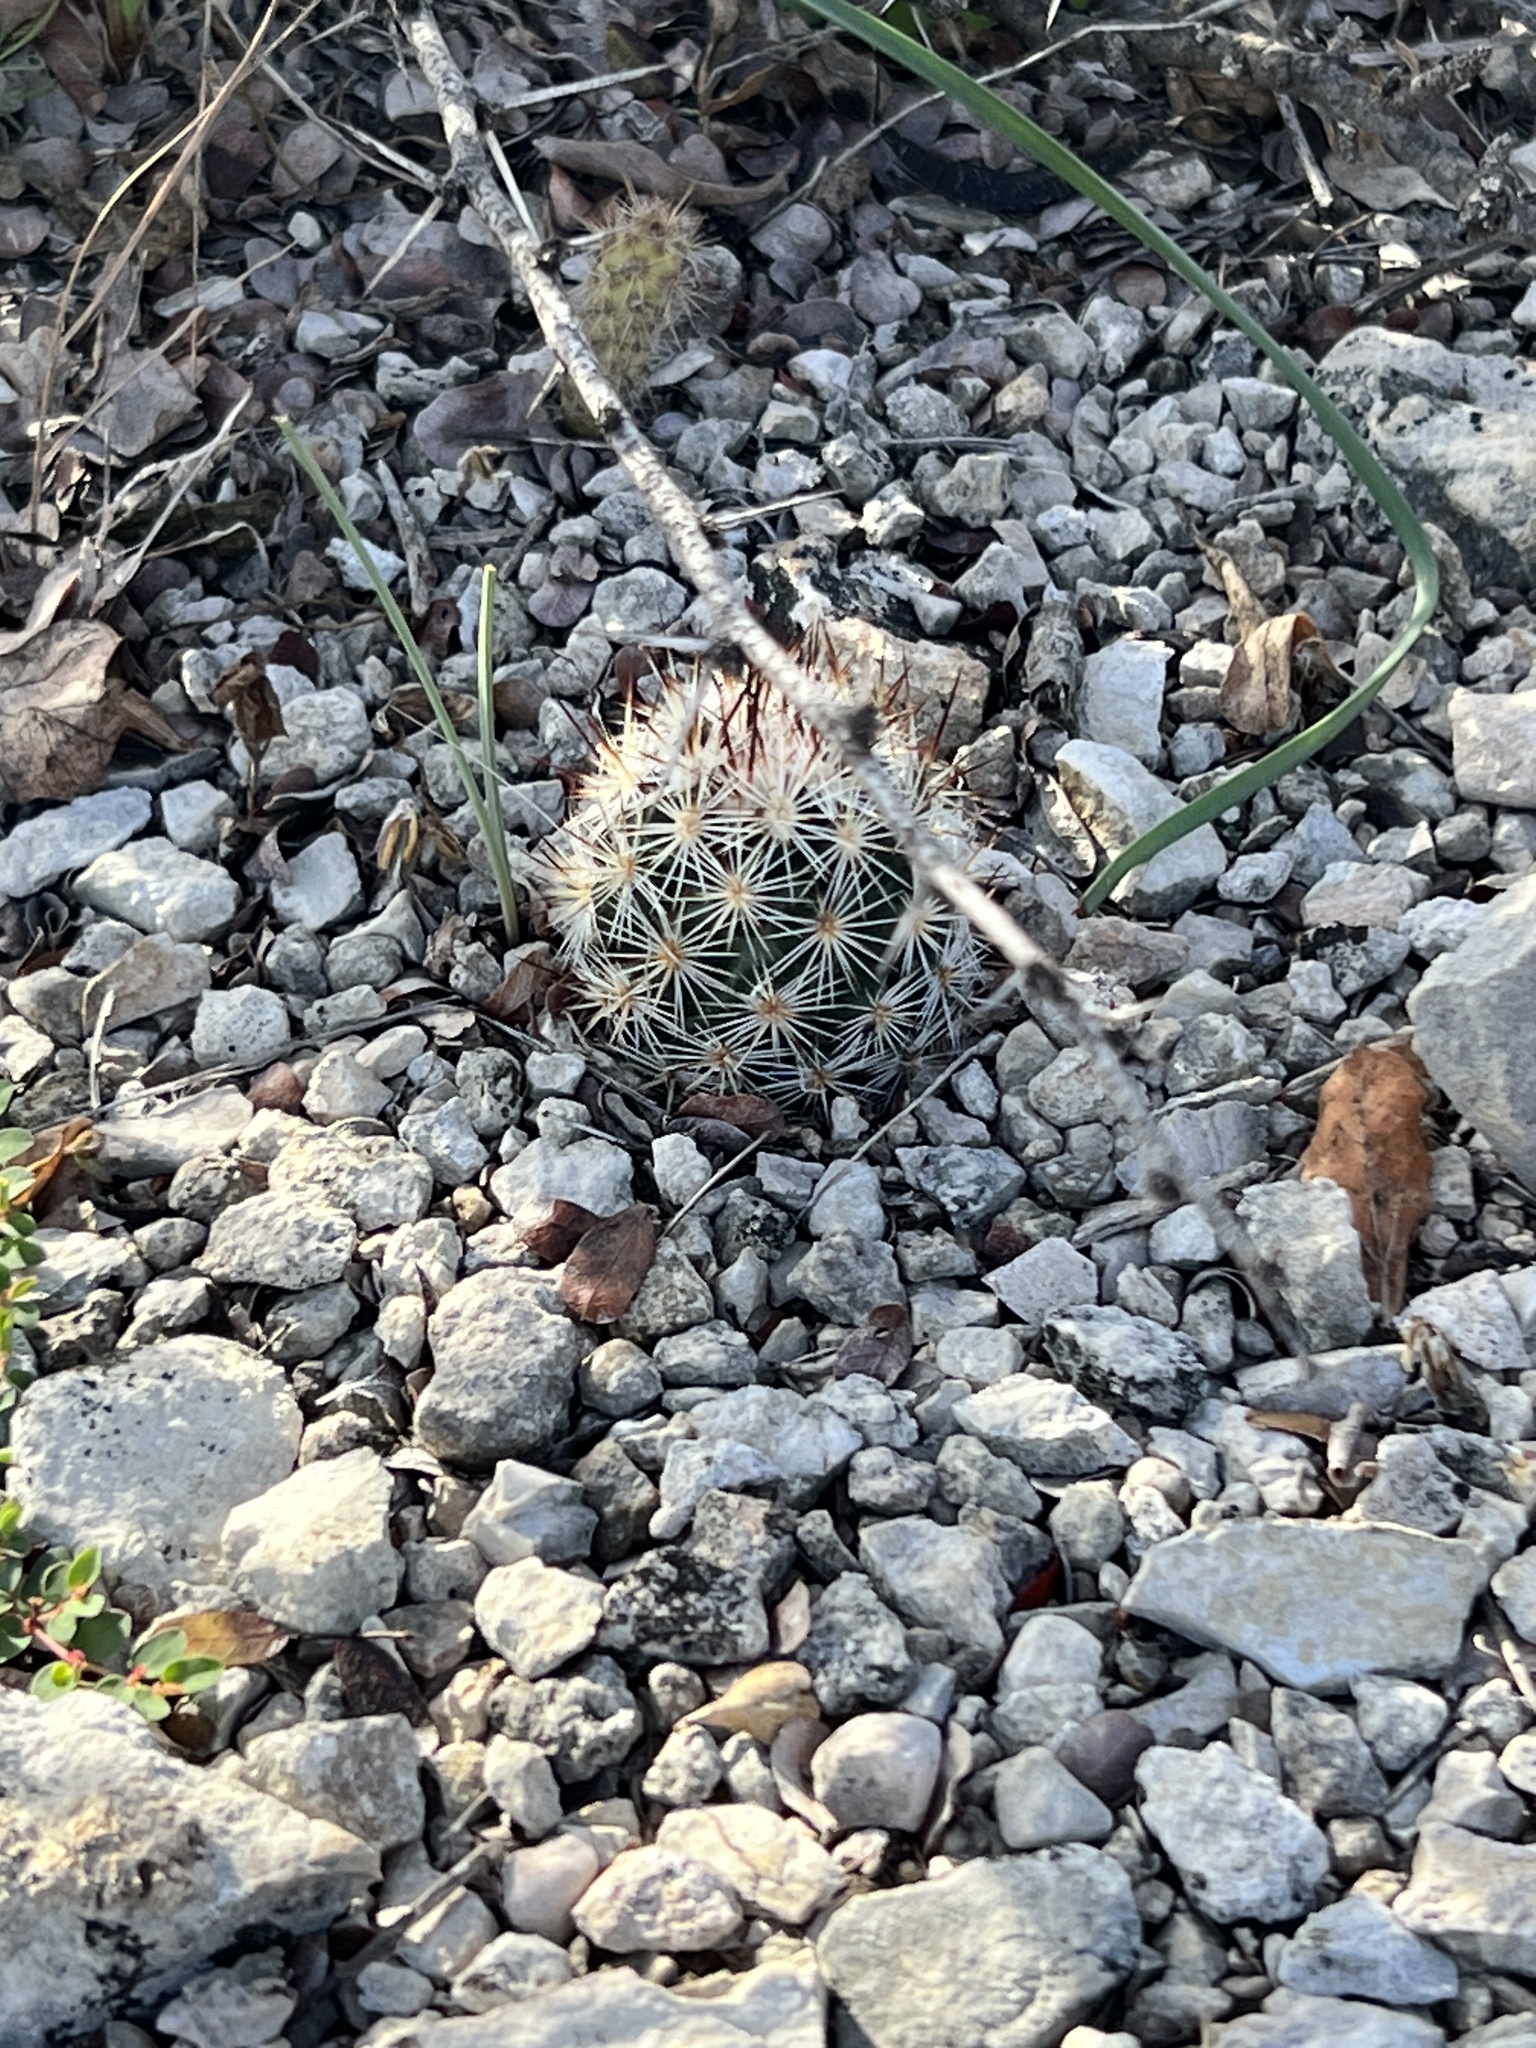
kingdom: Plantae
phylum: Tracheophyta
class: Magnoliopsida
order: Caryophyllales
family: Cactaceae
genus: Pelecyphora
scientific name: Pelecyphora emskoetteriana
